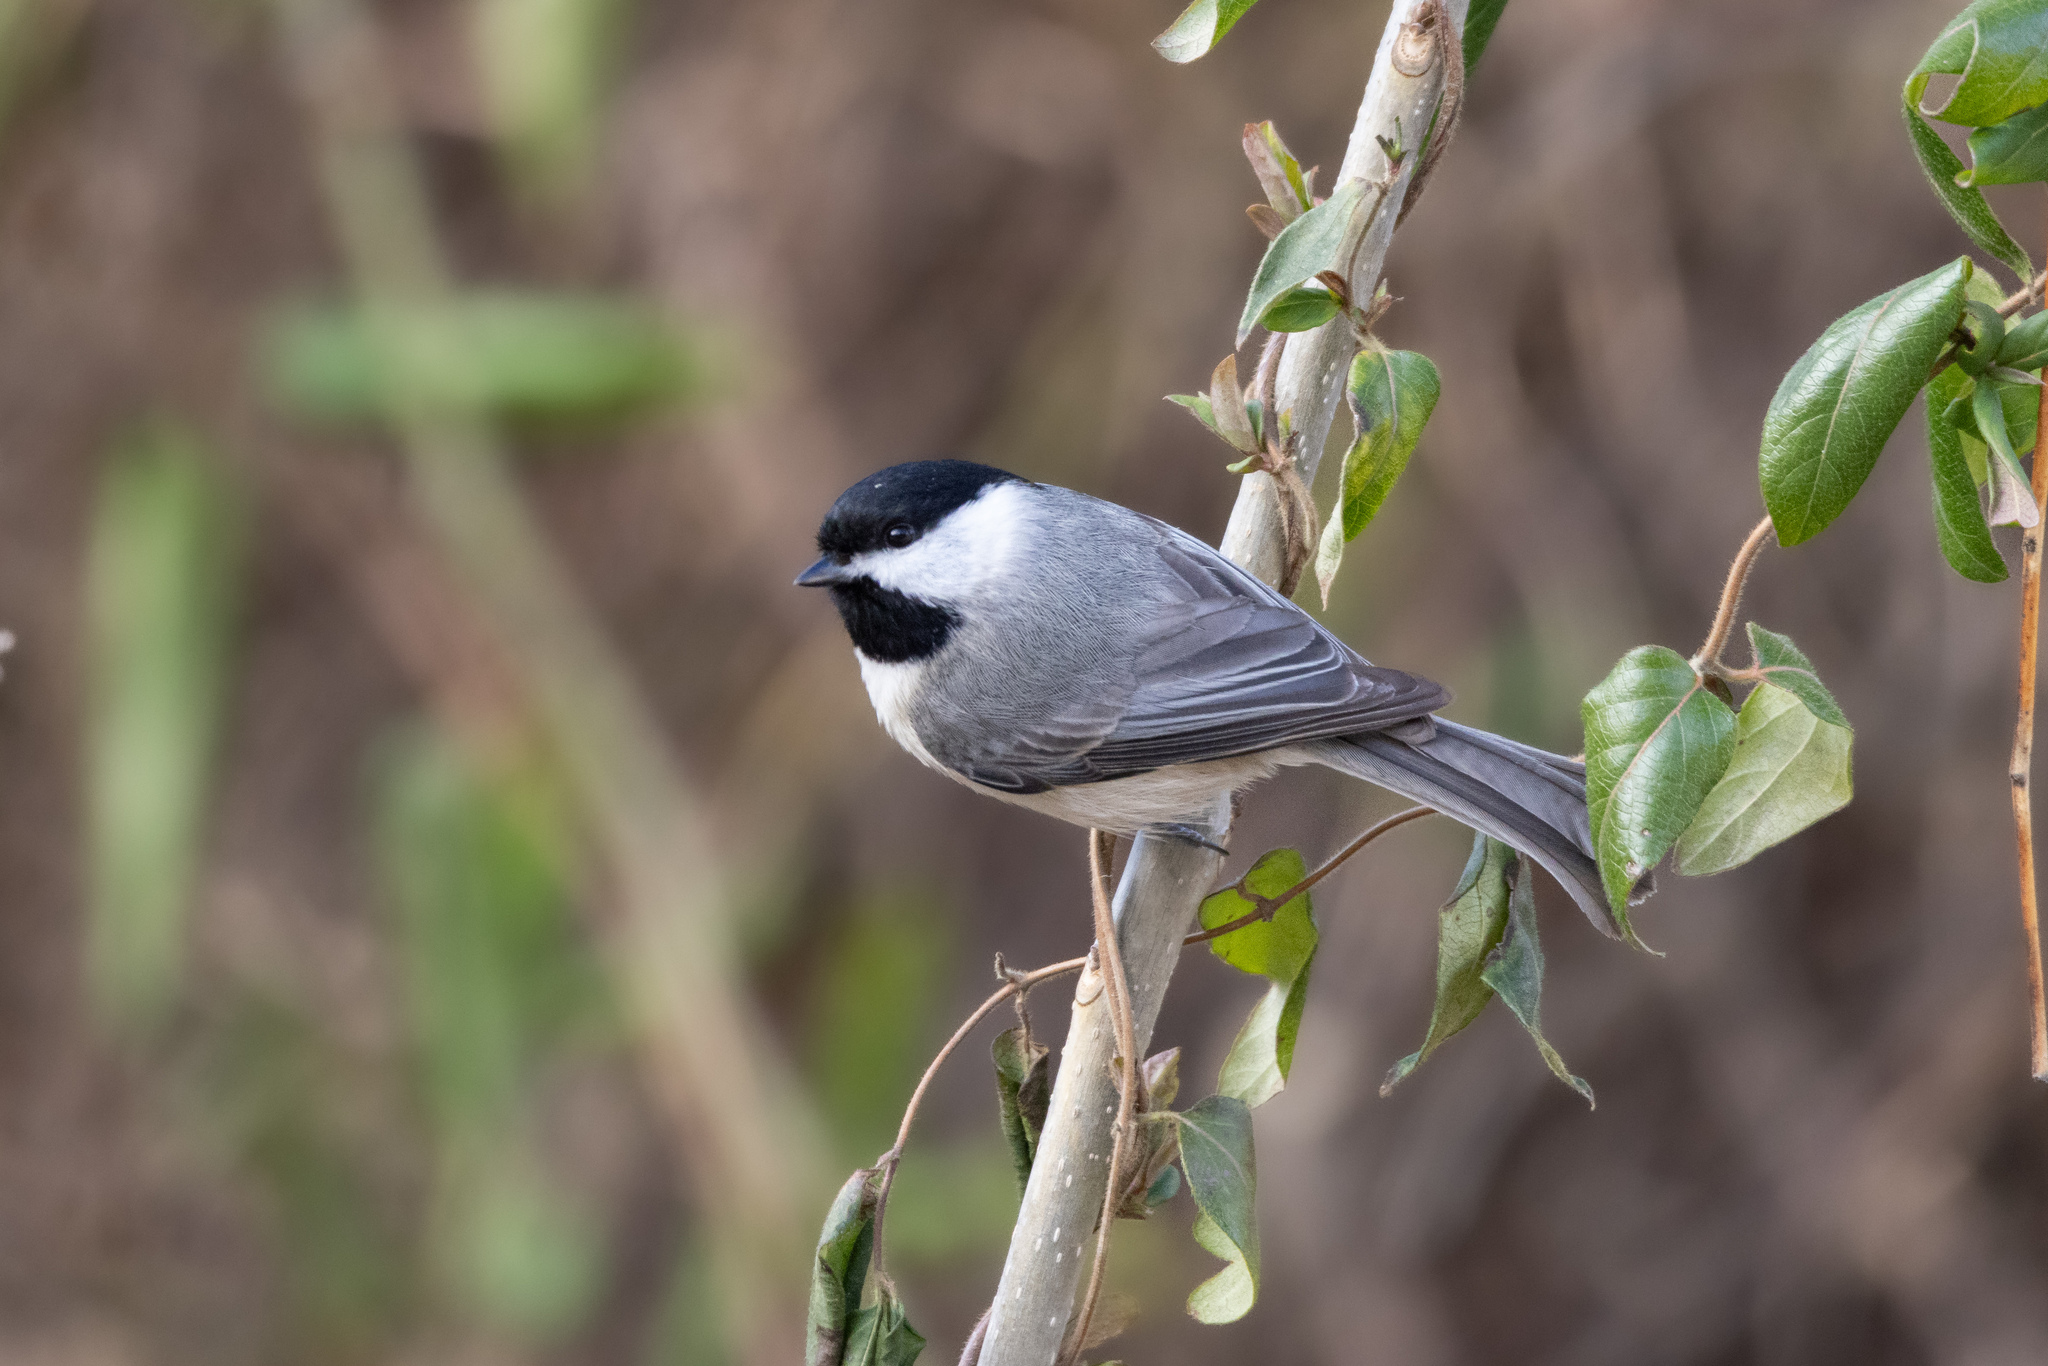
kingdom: Animalia
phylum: Chordata
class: Aves
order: Passeriformes
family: Paridae
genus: Poecile
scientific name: Poecile carolinensis
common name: Carolina chickadee
